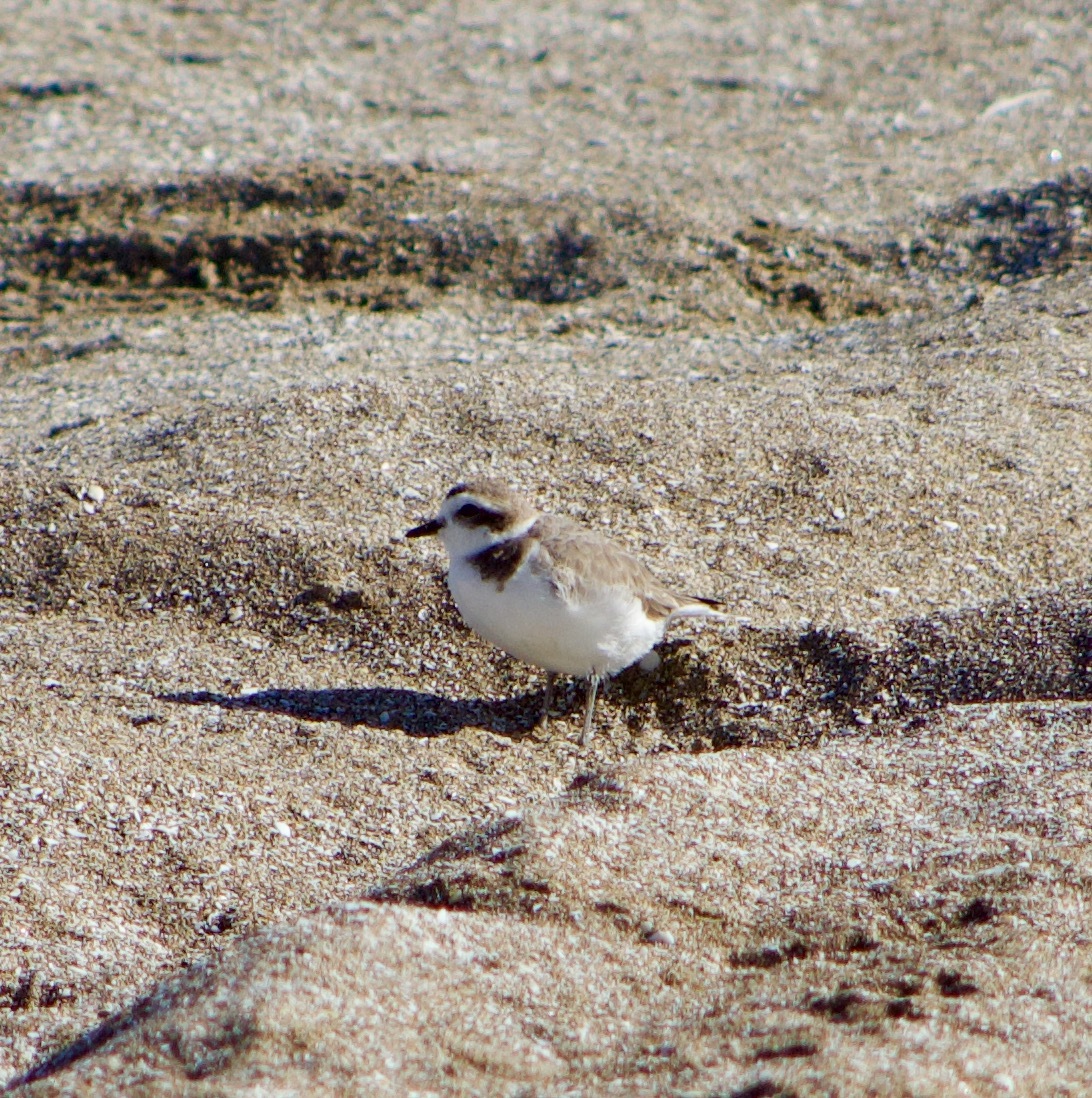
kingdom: Animalia
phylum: Chordata
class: Aves
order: Charadriiformes
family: Charadriidae
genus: Anarhynchus
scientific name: Anarhynchus
